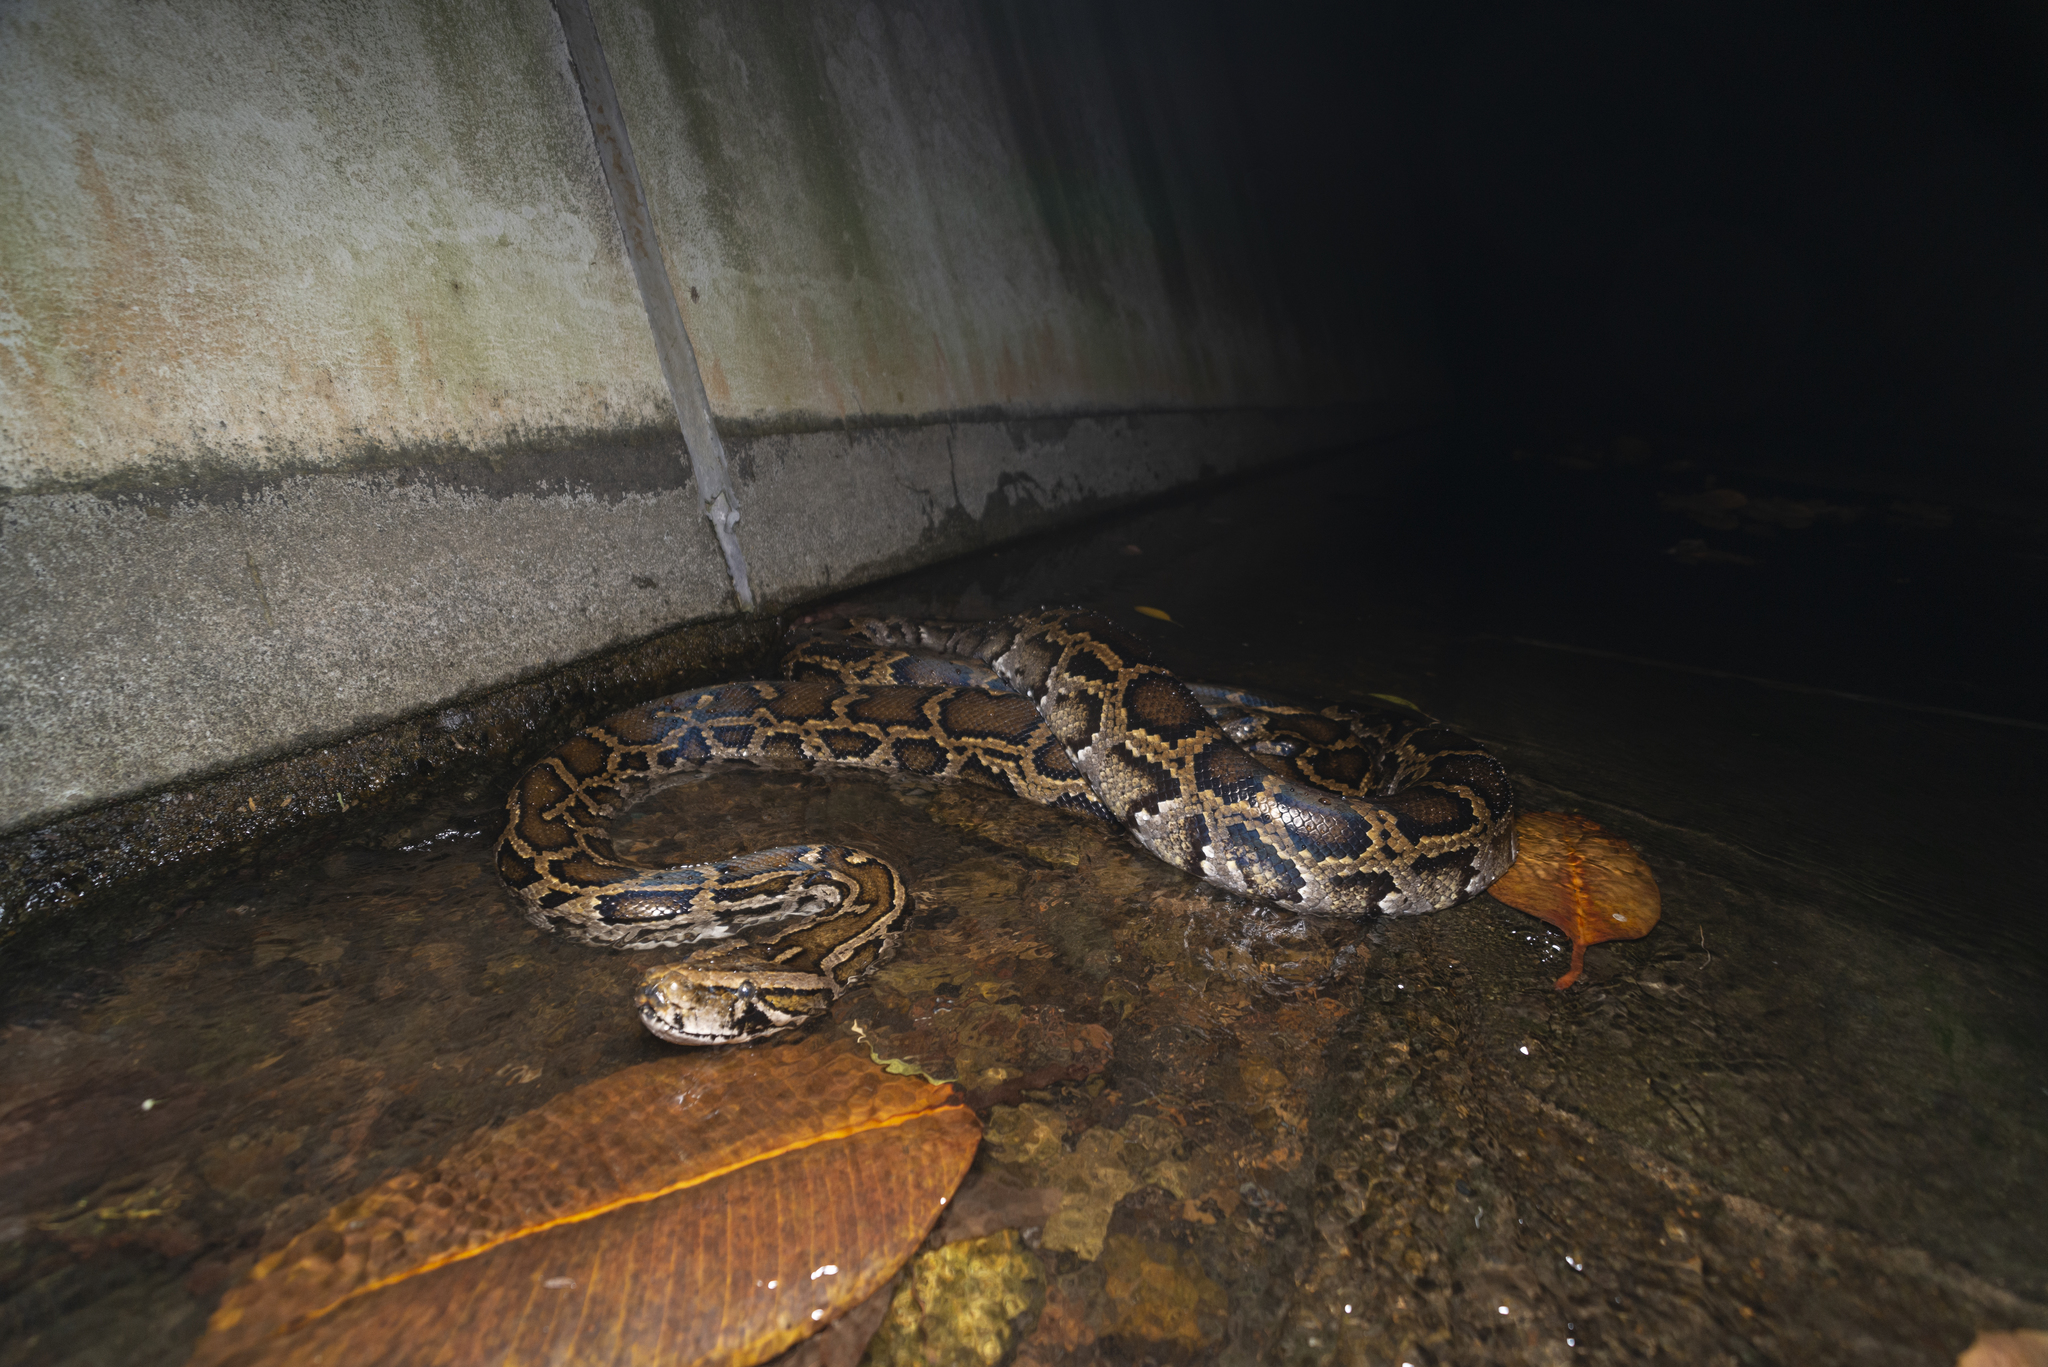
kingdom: Animalia
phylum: Chordata
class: Squamata
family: Pythonidae
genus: Python
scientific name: Python bivittatus
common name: Burmese python
